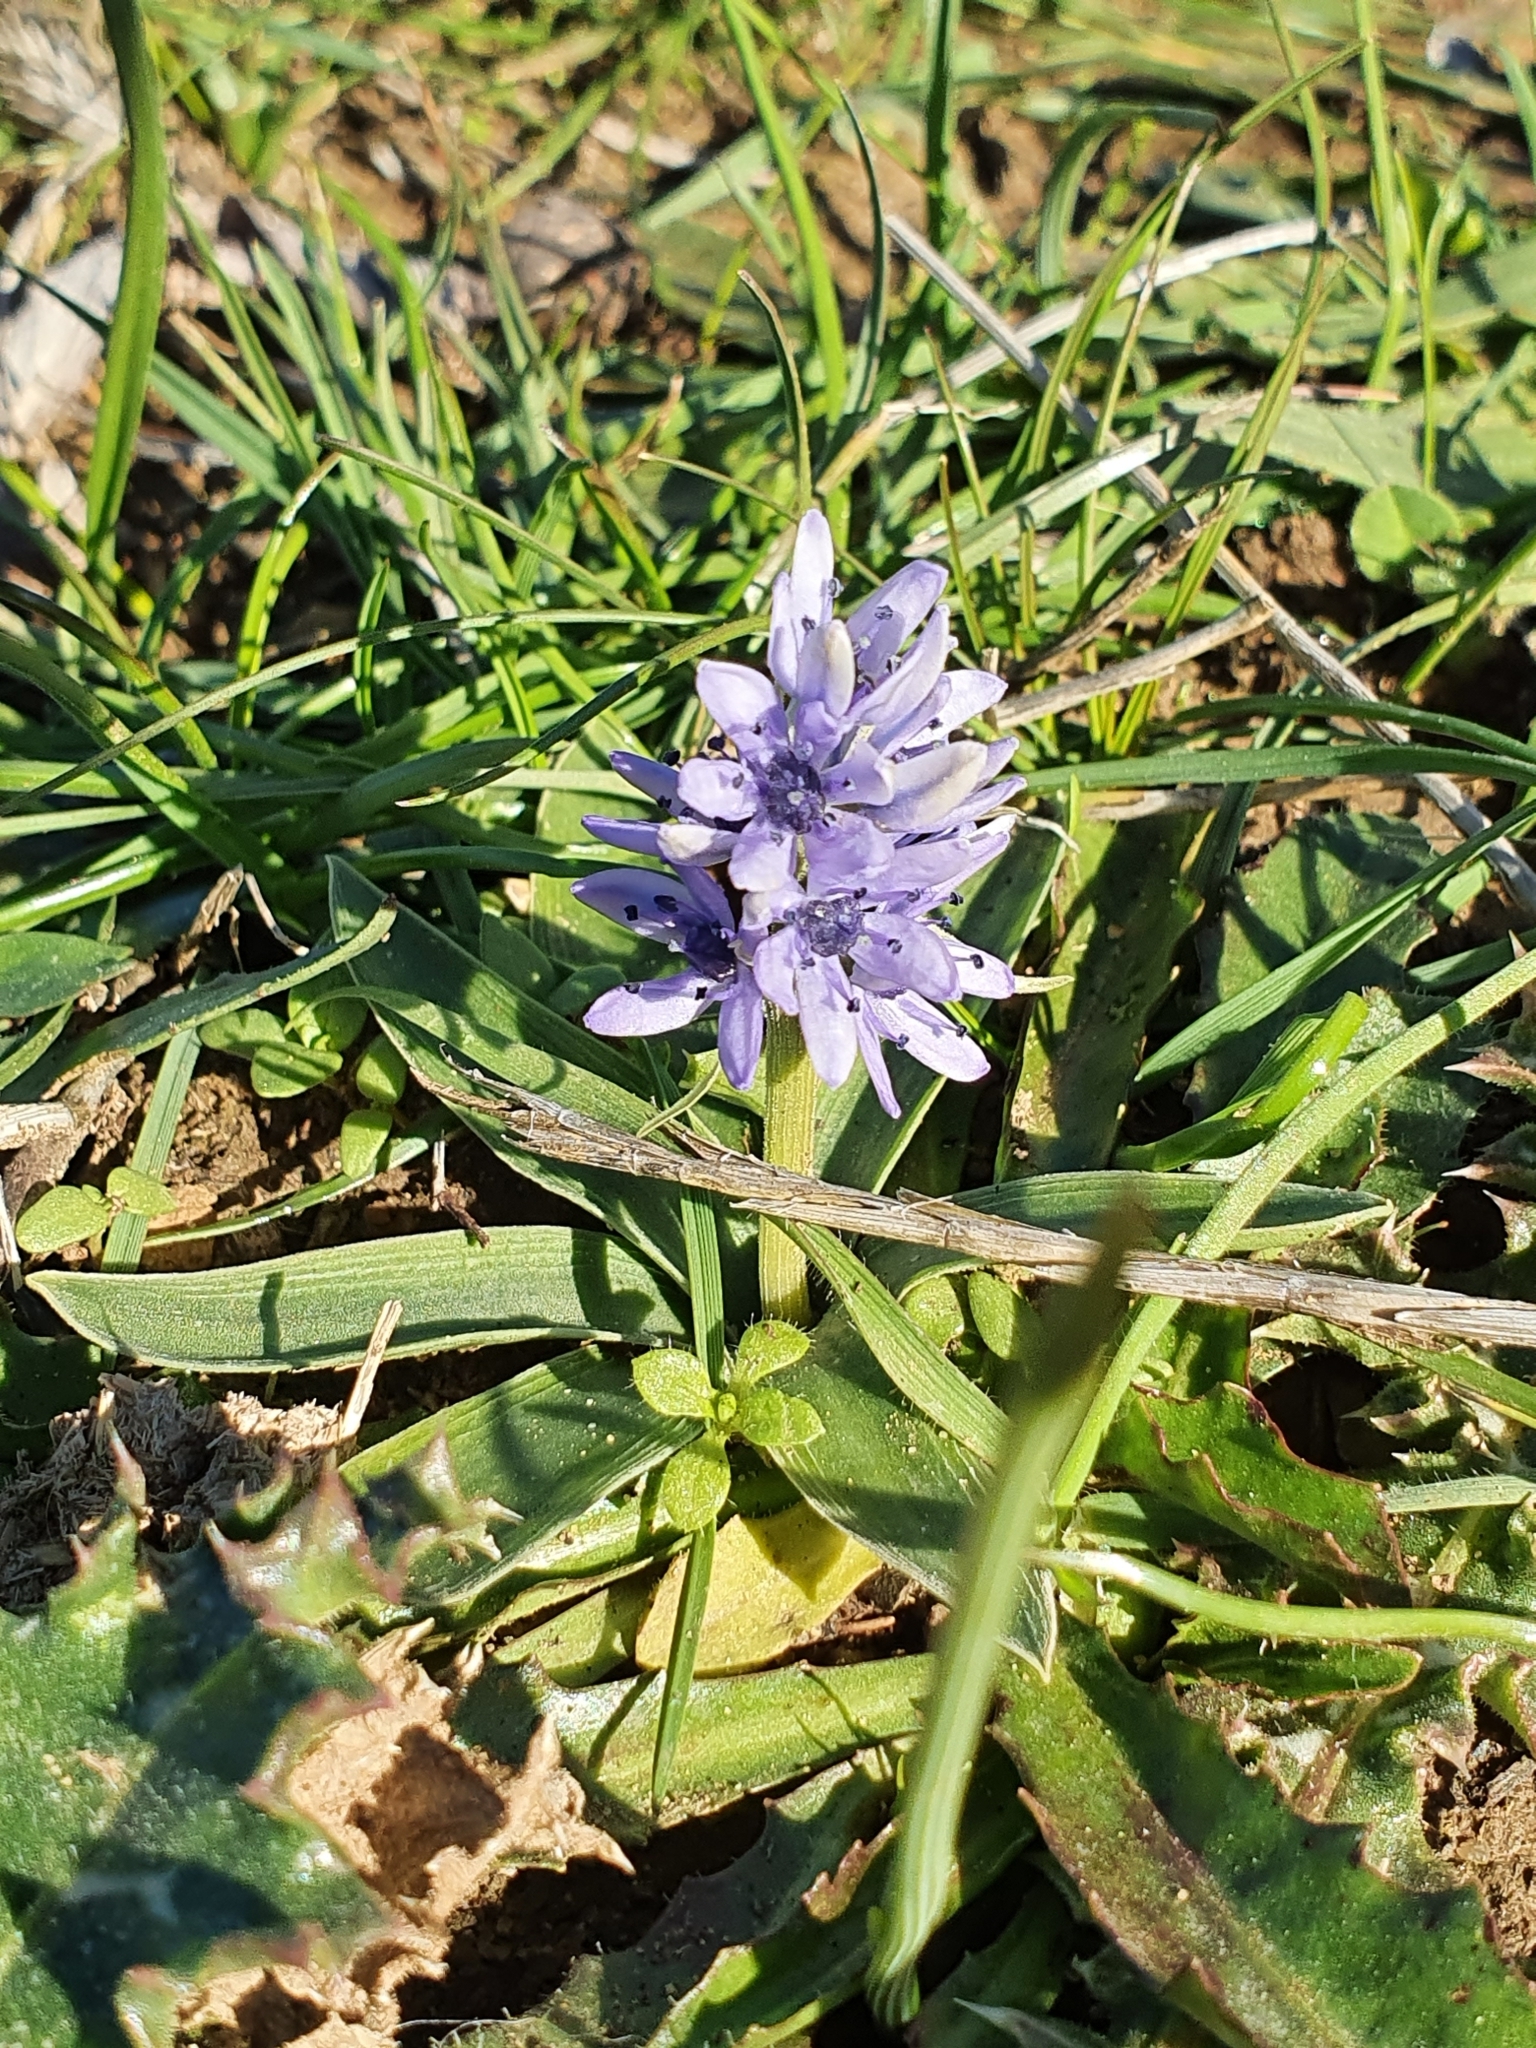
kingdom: Plantae
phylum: Tracheophyta
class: Liliopsida
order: Asparagales
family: Asparagaceae
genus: Hyacinthoides
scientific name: Hyacinthoides lingulata
